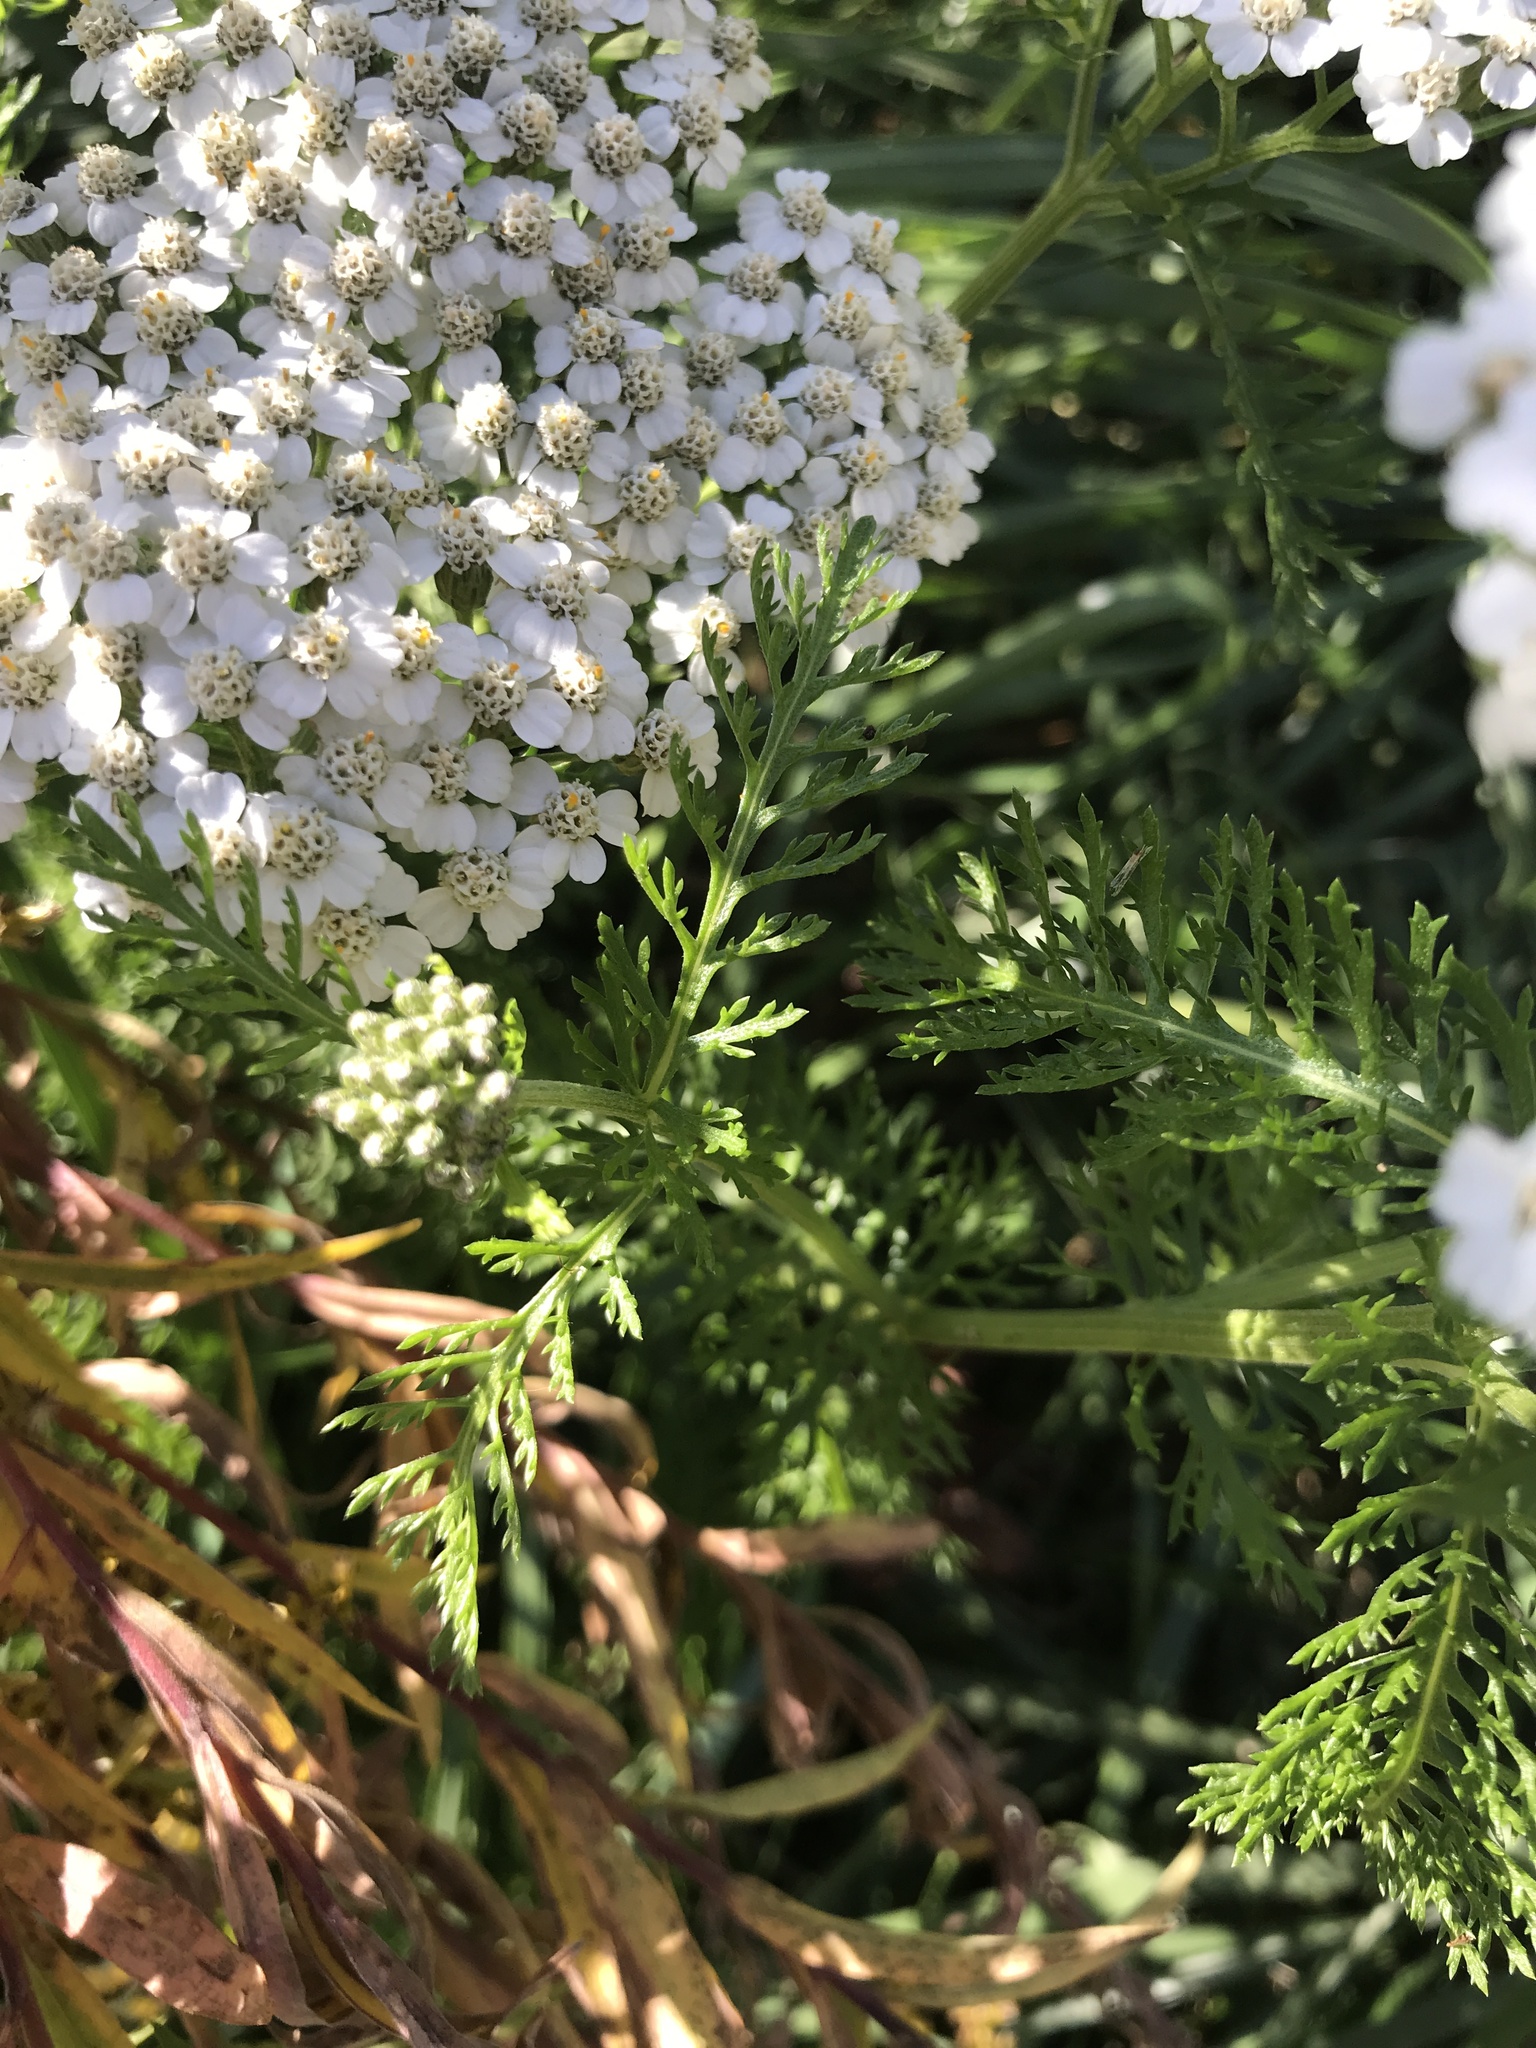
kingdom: Plantae
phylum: Tracheophyta
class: Magnoliopsida
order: Asterales
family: Asteraceae
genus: Achillea
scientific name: Achillea millefolium
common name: Yarrow
